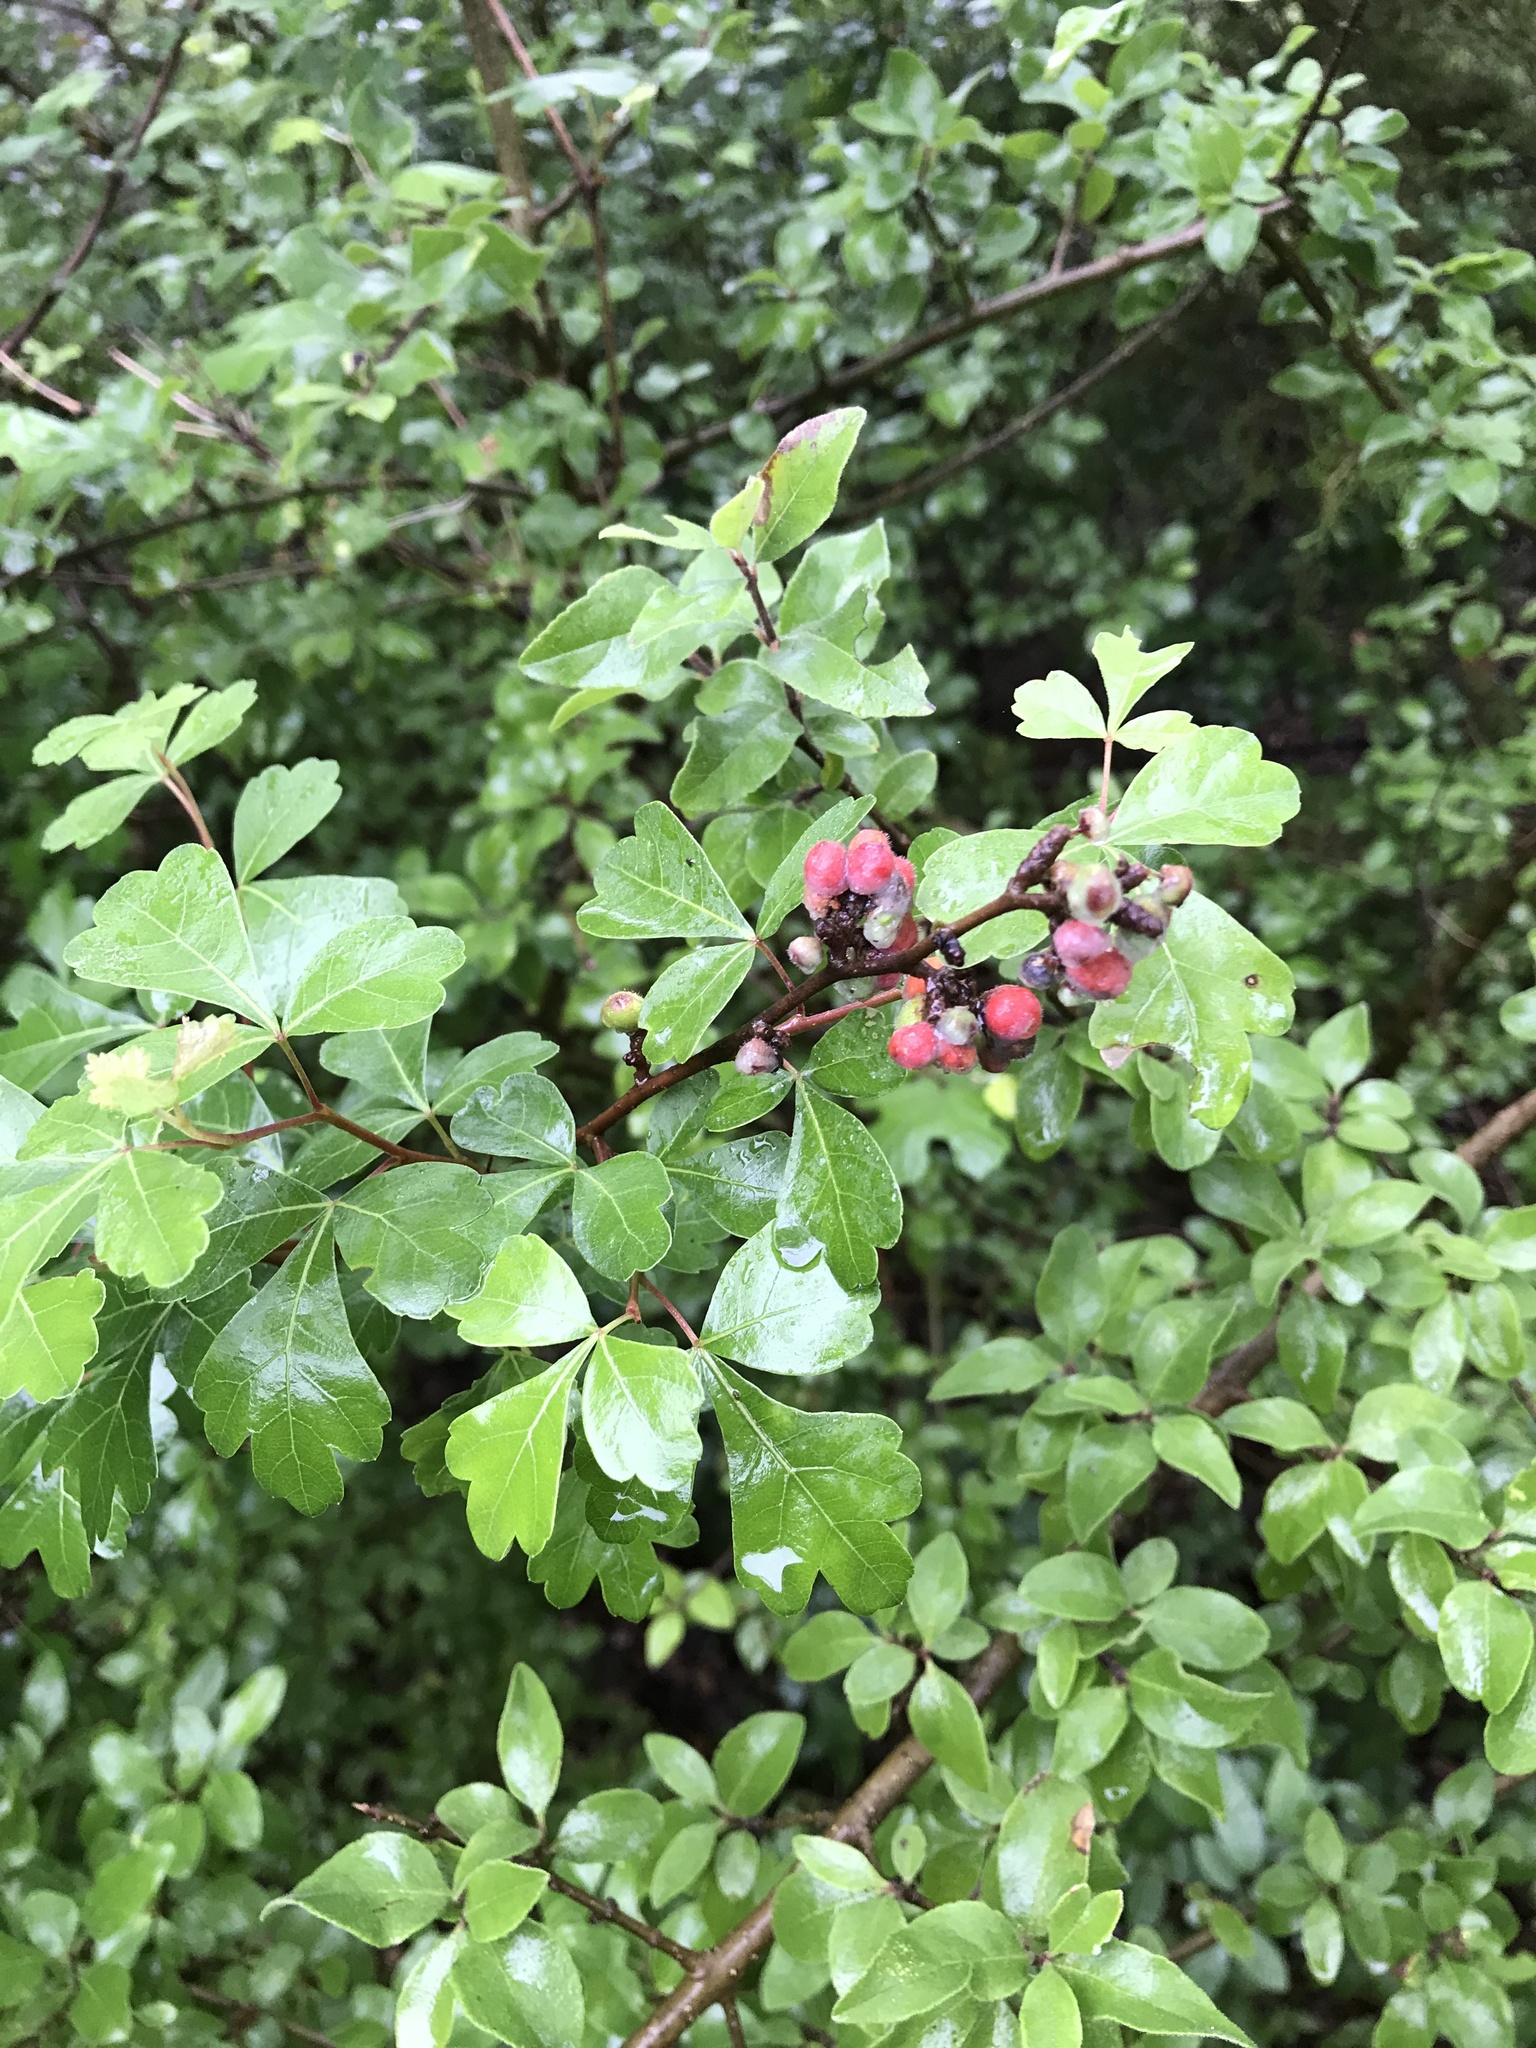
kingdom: Plantae
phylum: Tracheophyta
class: Magnoliopsida
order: Sapindales
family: Anacardiaceae
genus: Rhus
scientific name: Rhus aromatica
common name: Aromatic sumac
